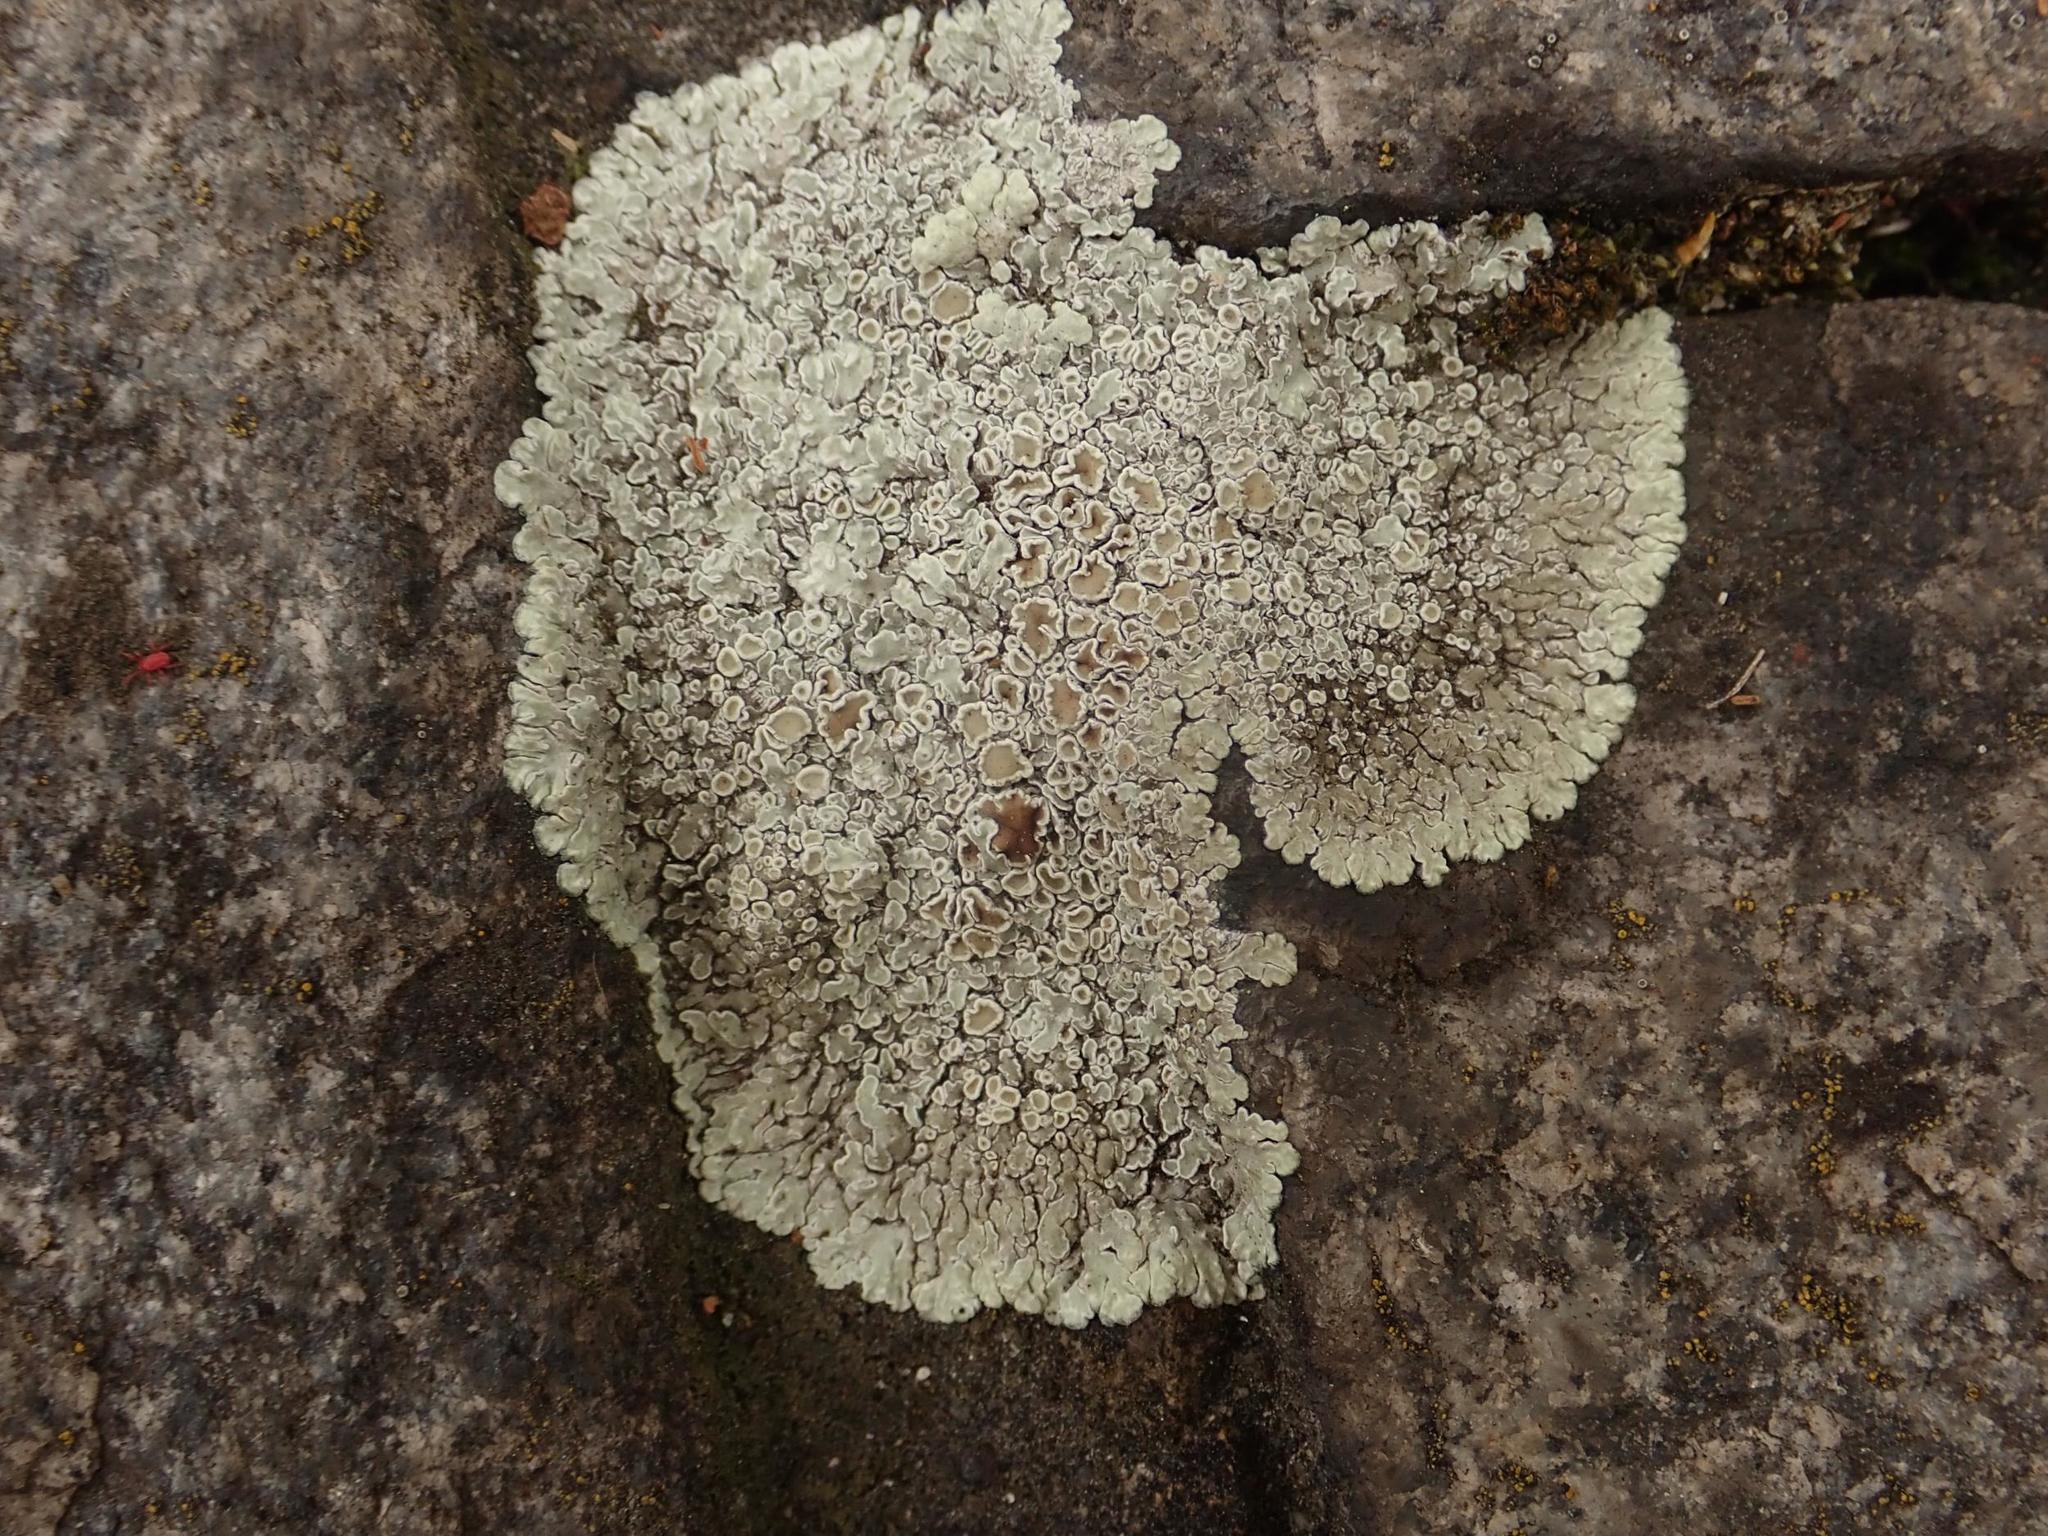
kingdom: Fungi
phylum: Ascomycota
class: Lecanoromycetes
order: Lecanorales
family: Lecanoraceae
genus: Protoparmeliopsis
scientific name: Protoparmeliopsis muralis
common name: Stonewall rim lichen
